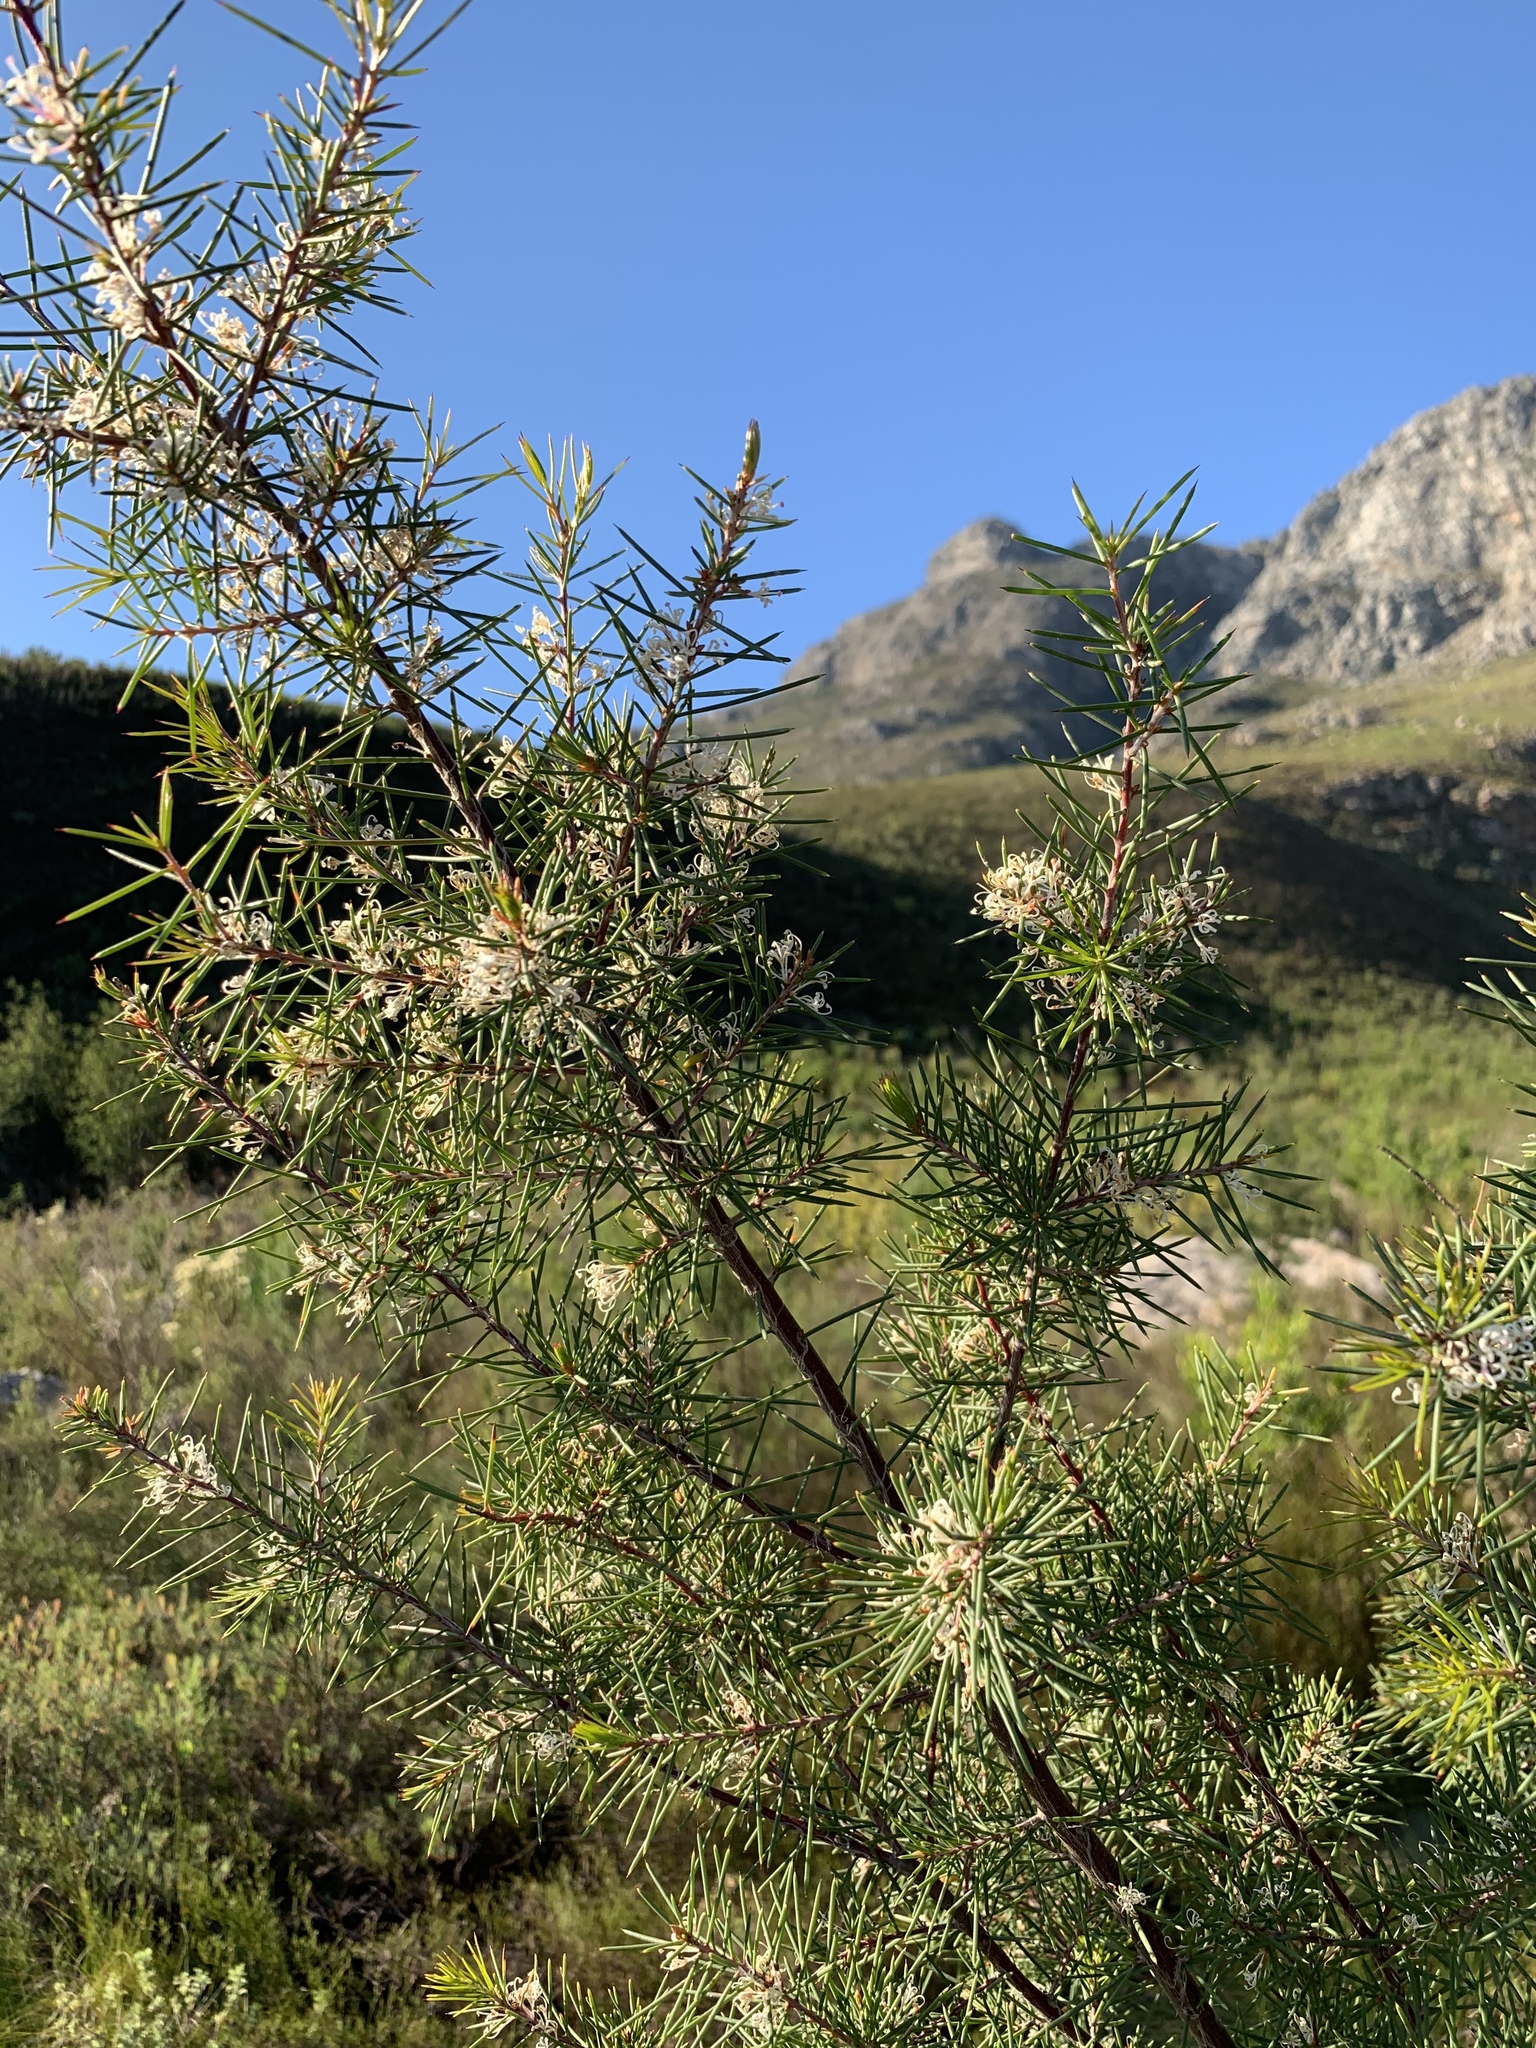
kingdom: Plantae
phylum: Tracheophyta
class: Magnoliopsida
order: Proteales
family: Proteaceae
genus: Hakea
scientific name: Hakea sericea
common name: Needle bush
